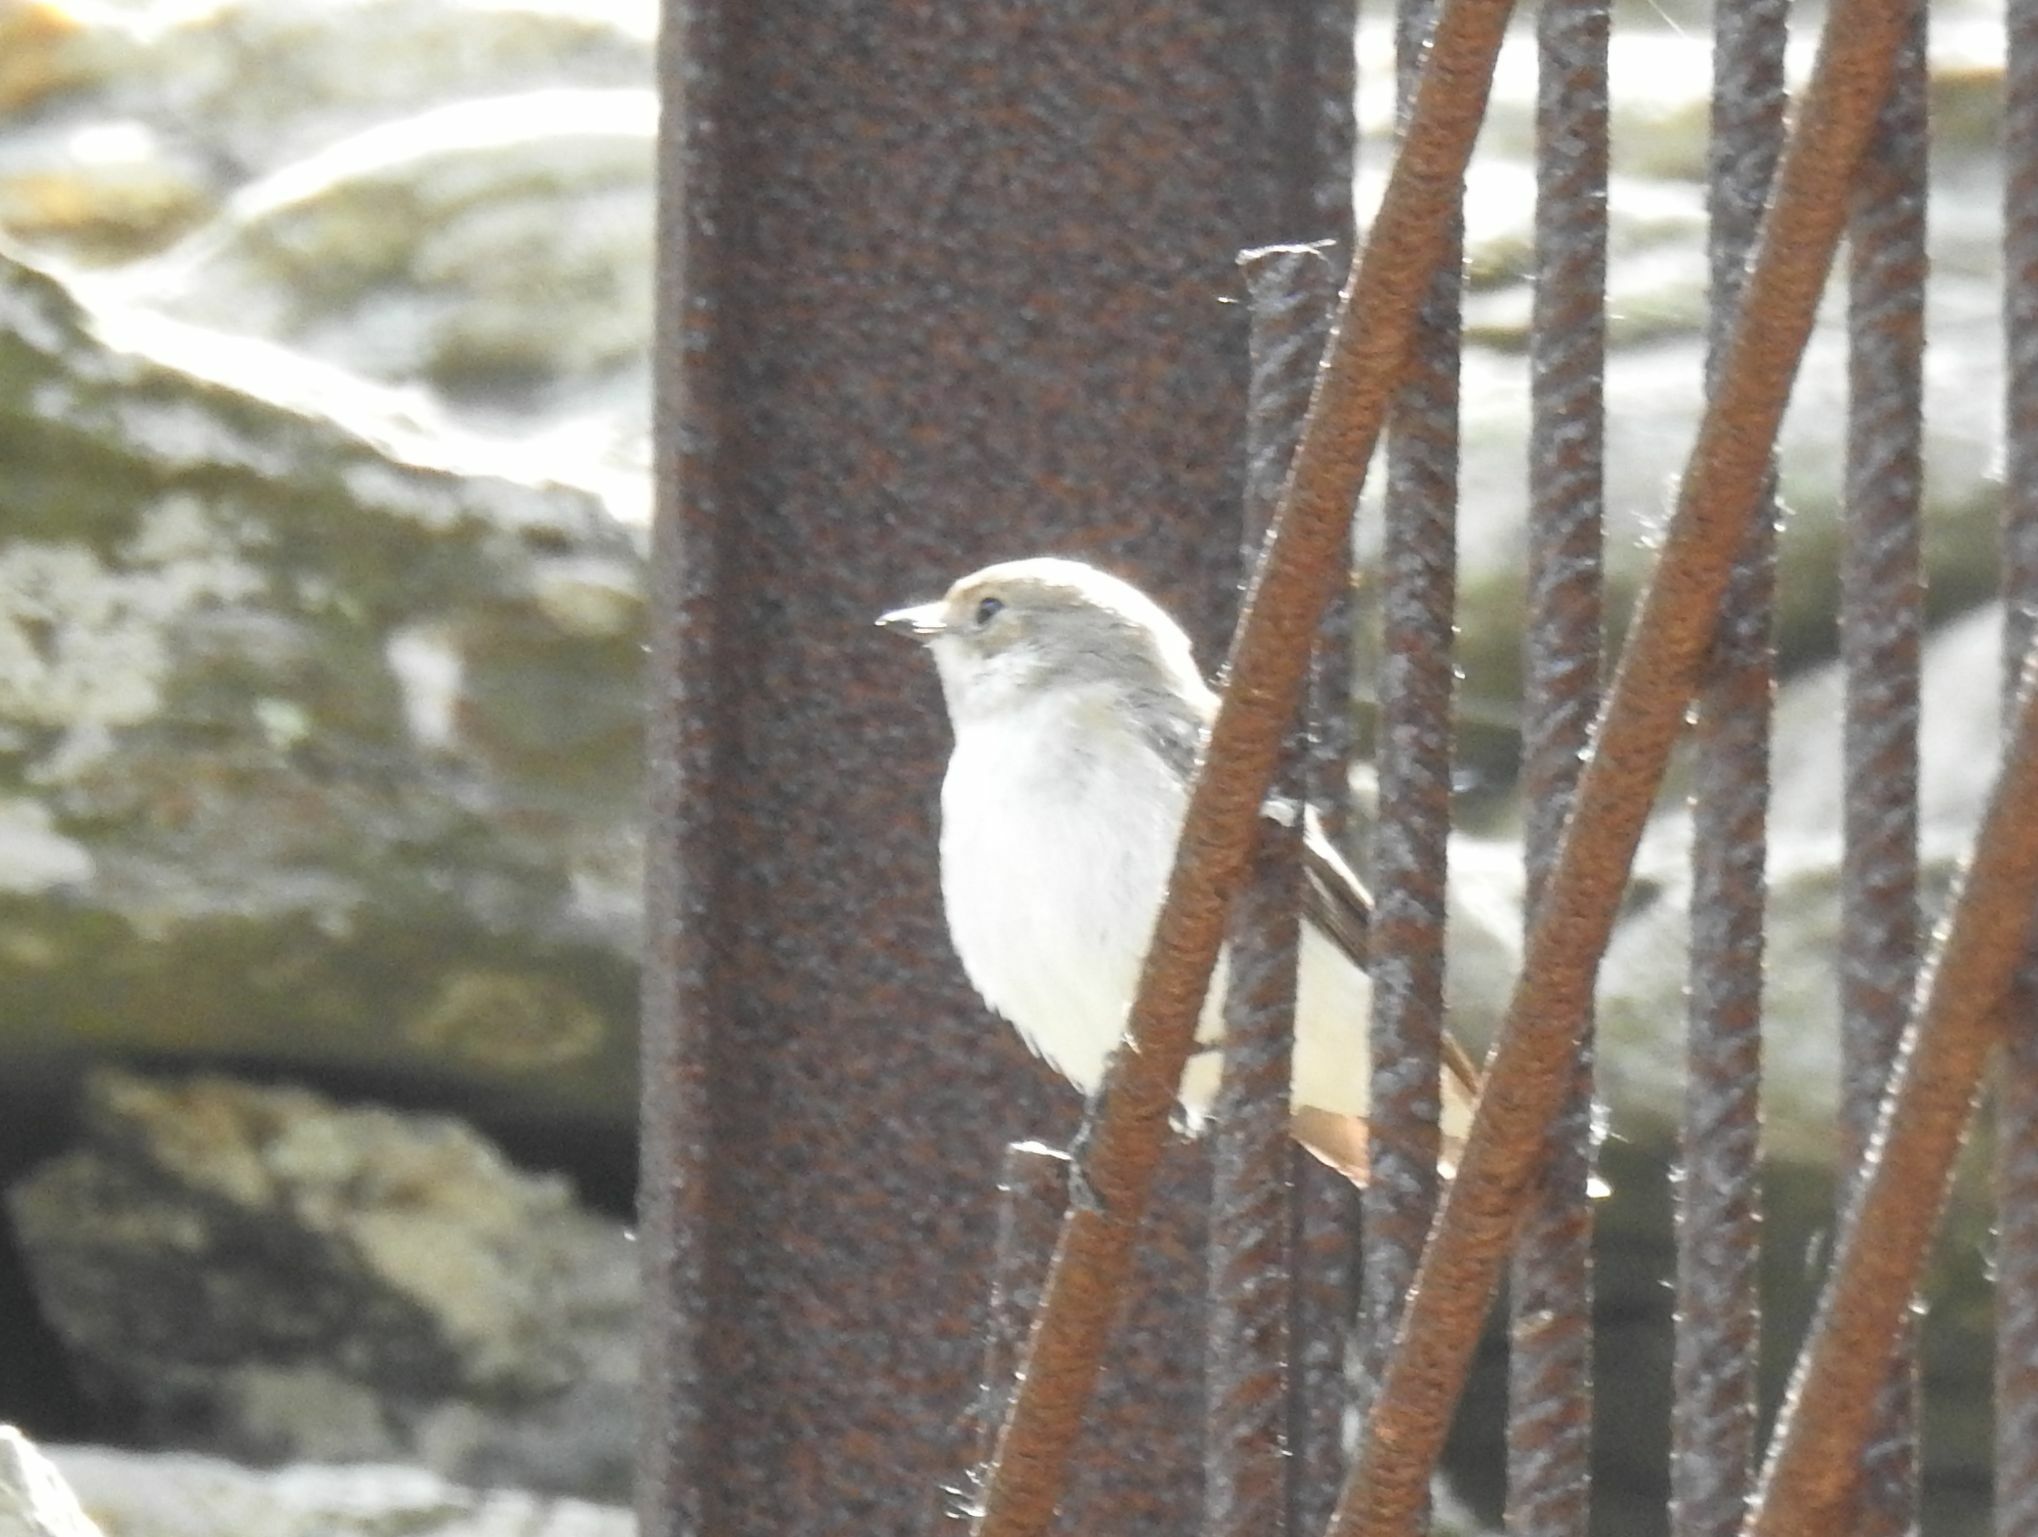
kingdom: Animalia
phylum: Chordata
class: Aves
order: Passeriformes
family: Muscicapidae
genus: Ficedula
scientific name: Ficedula hypoleuca
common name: European pied flycatcher
